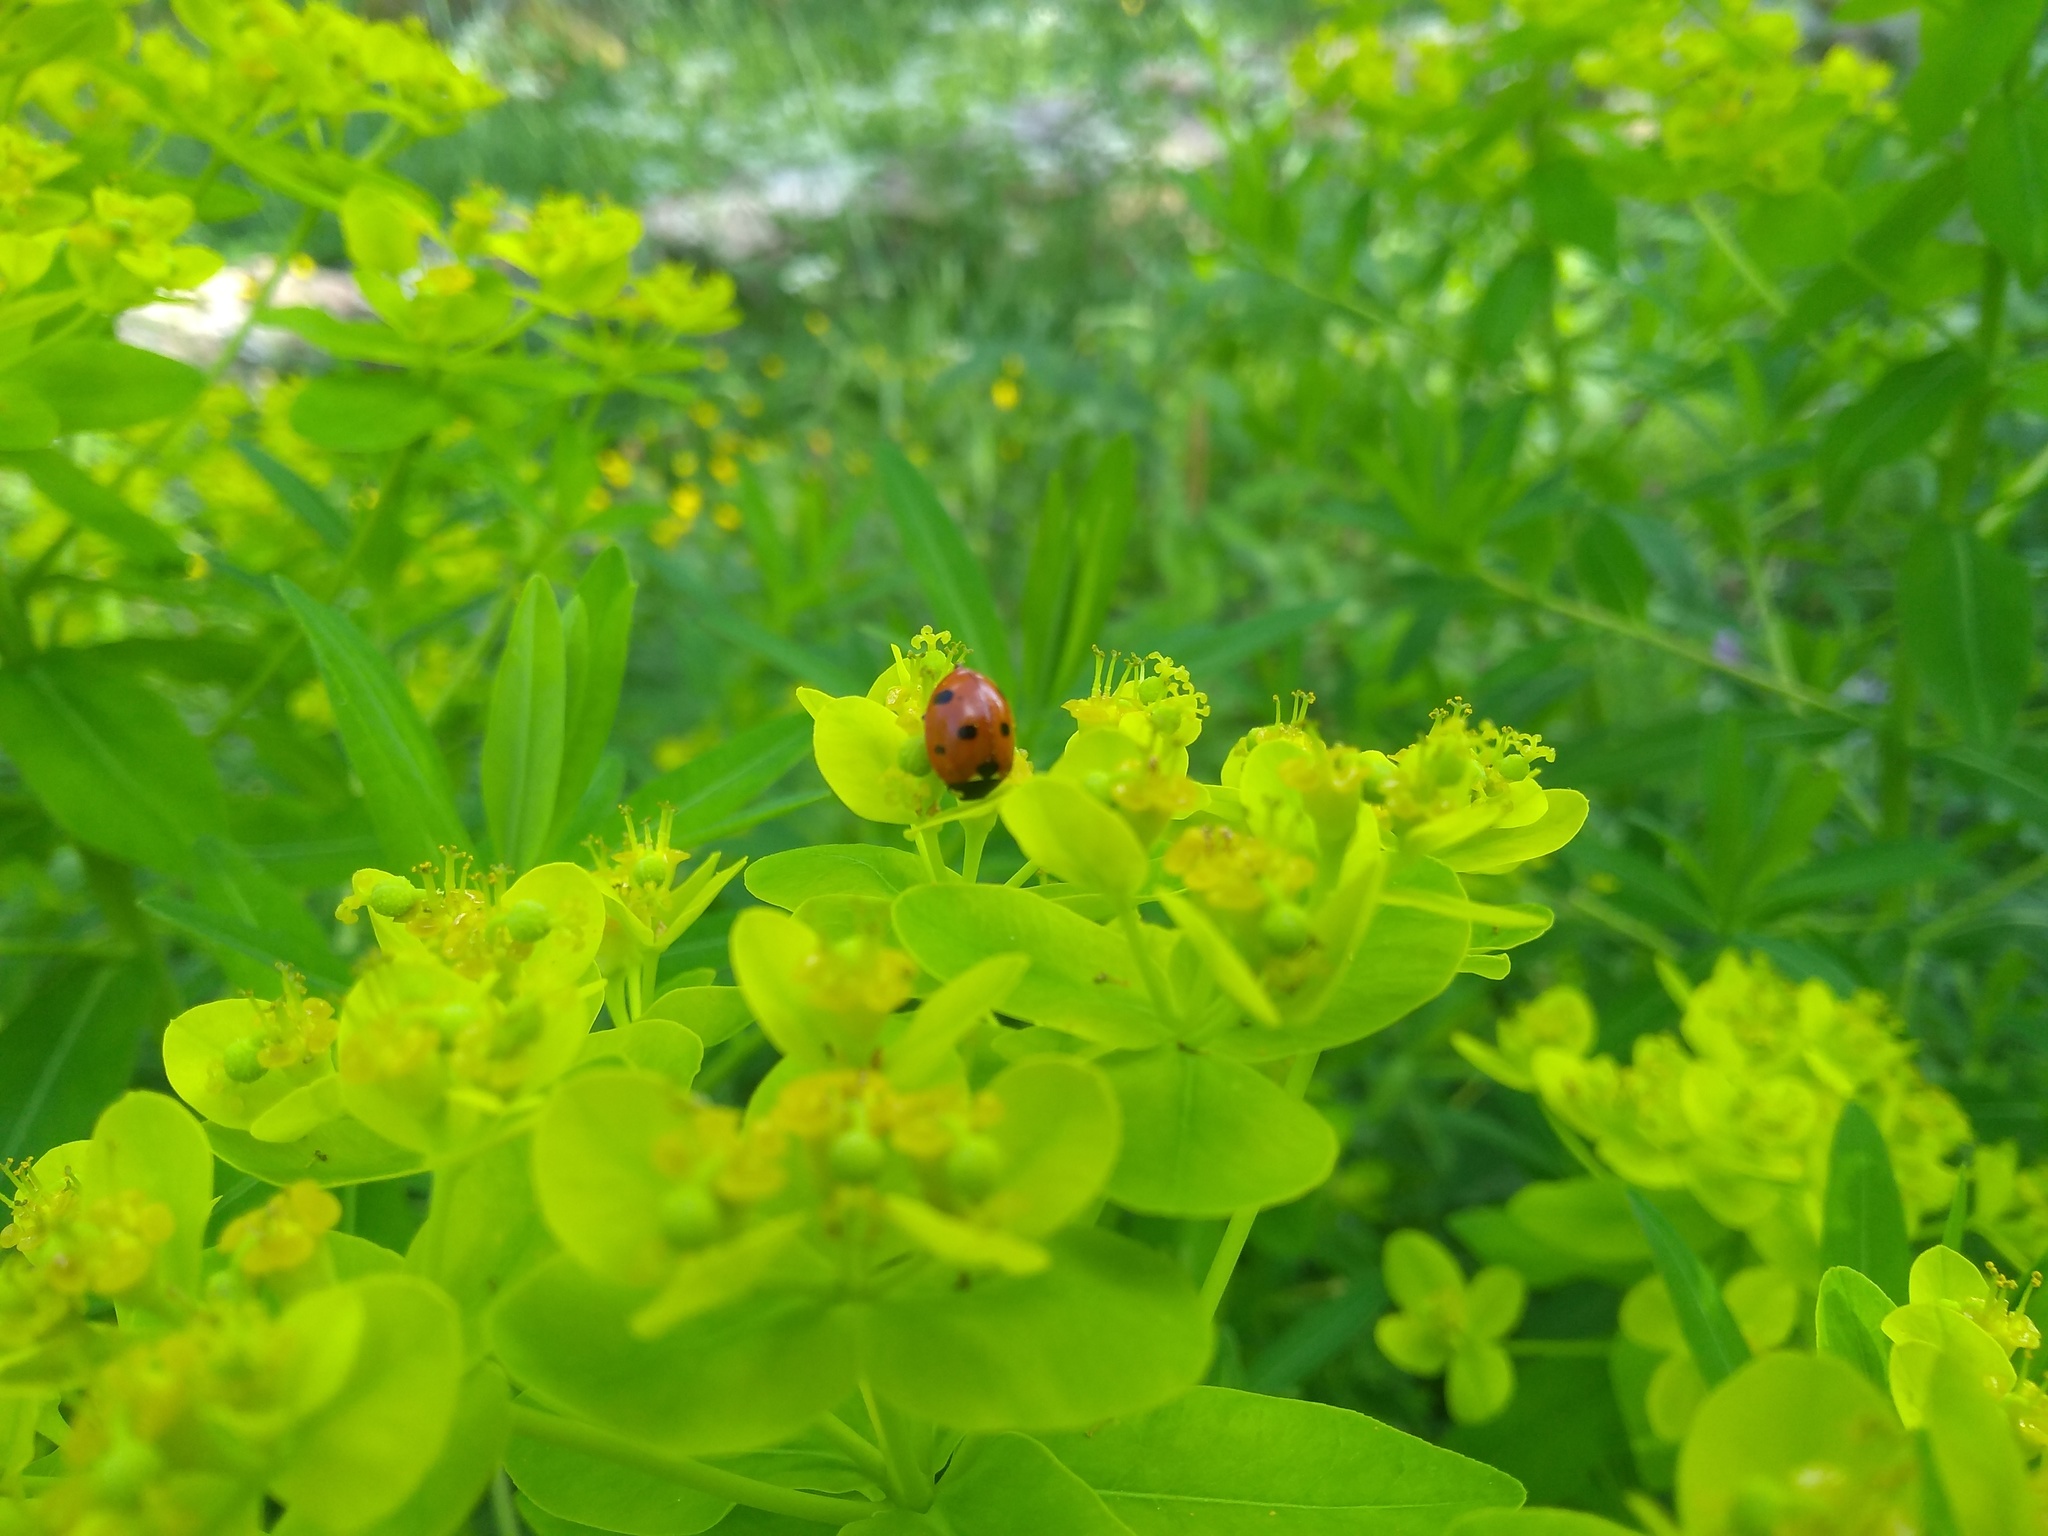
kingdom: Animalia
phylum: Arthropoda
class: Insecta
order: Coleoptera
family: Coccinellidae
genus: Coccinella
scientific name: Coccinella septempunctata
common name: Sevenspotted lady beetle
